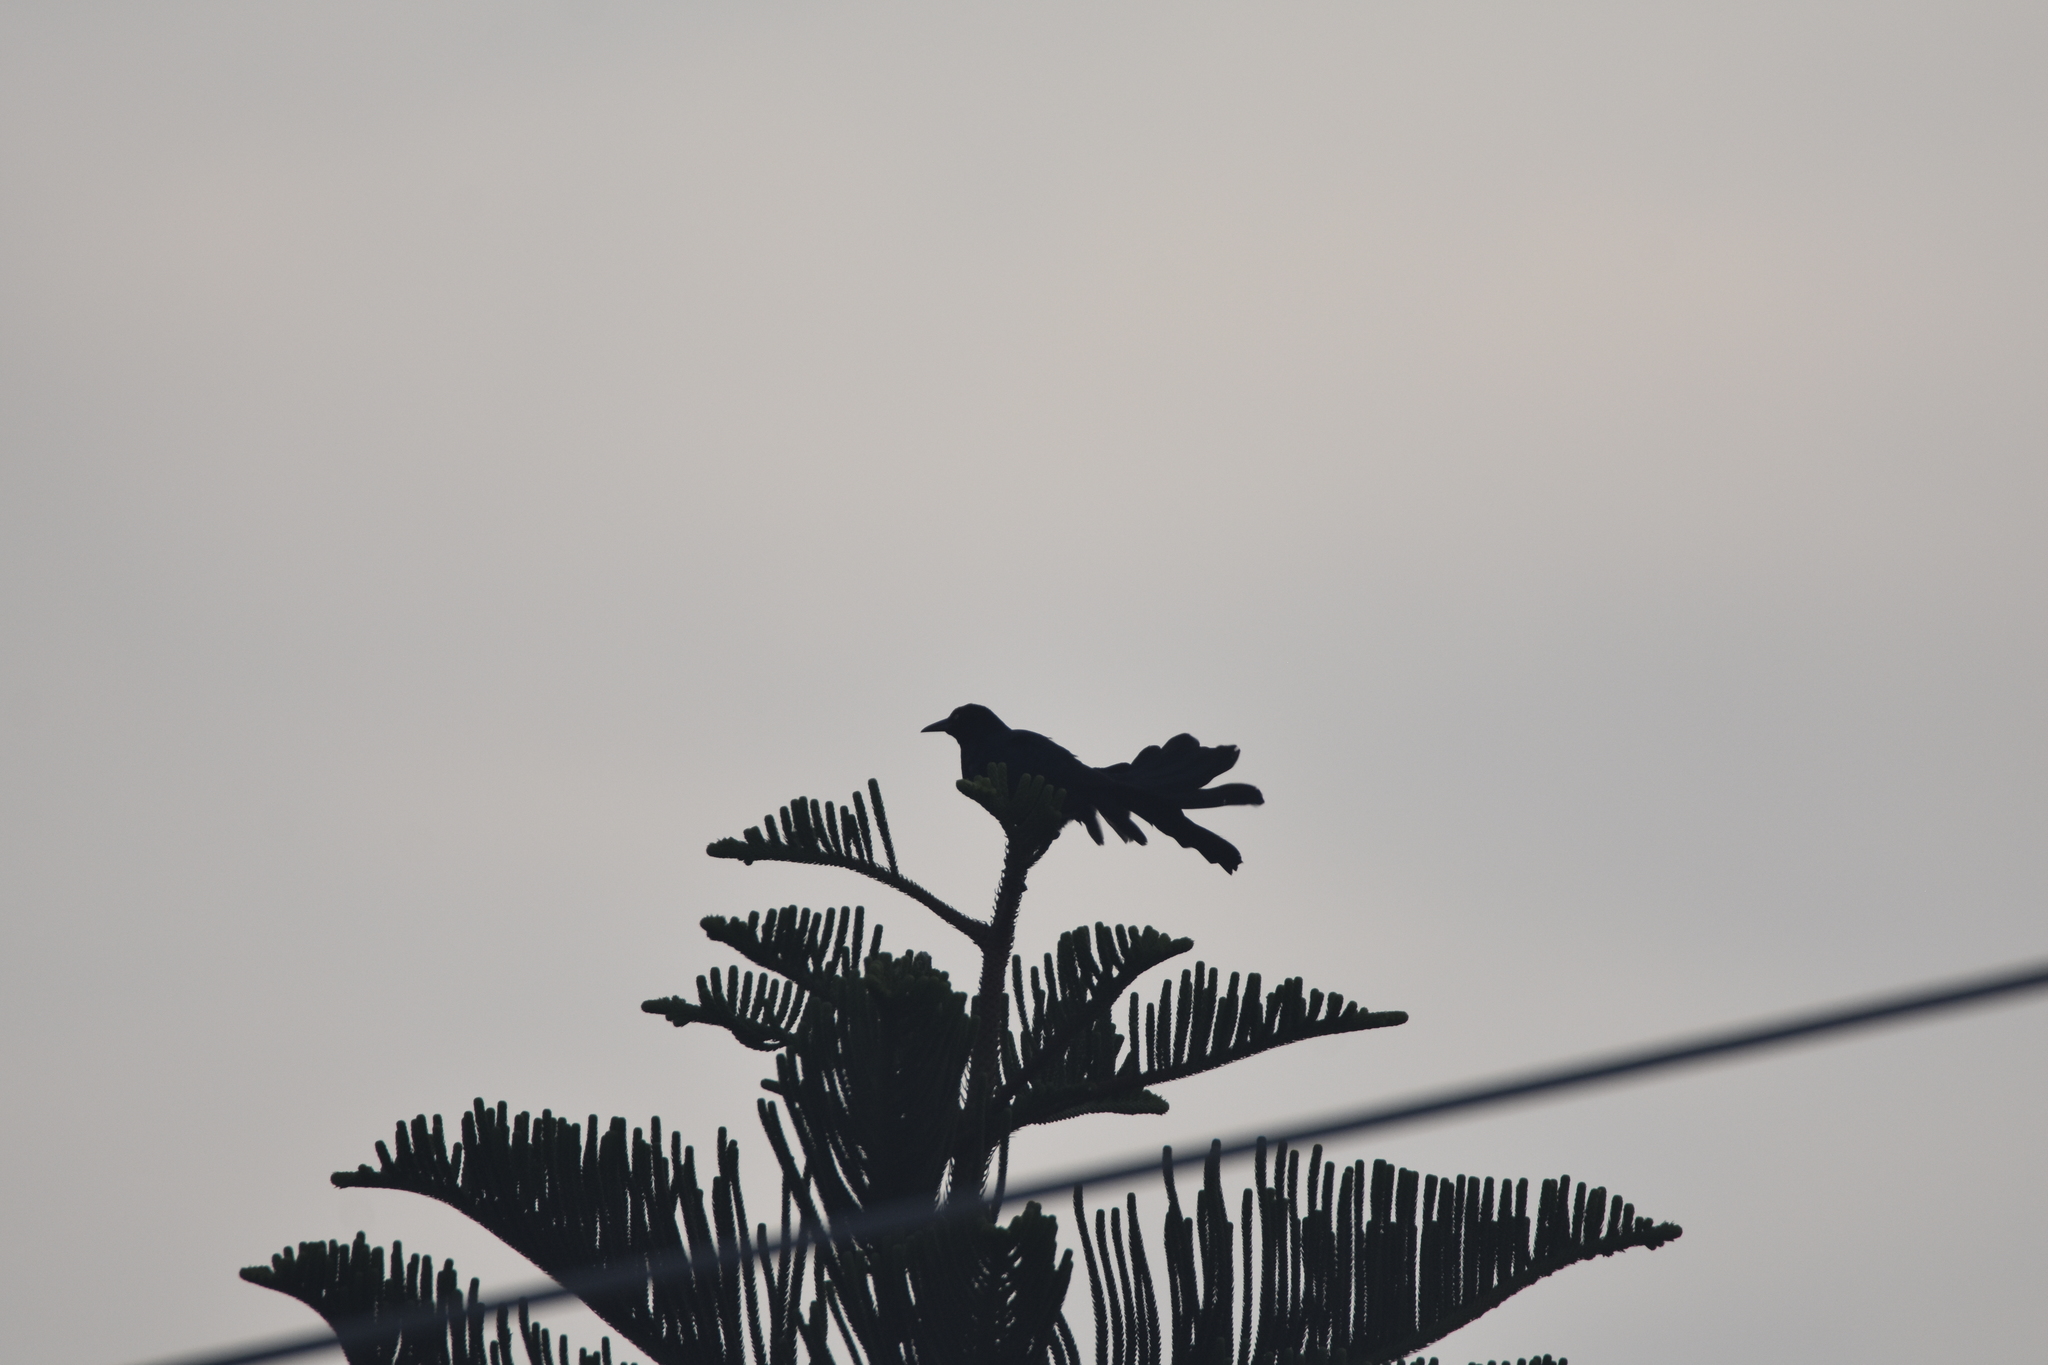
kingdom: Animalia
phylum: Chordata
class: Aves
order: Passeriformes
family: Icteridae
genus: Quiscalus
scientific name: Quiscalus mexicanus
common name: Great-tailed grackle
